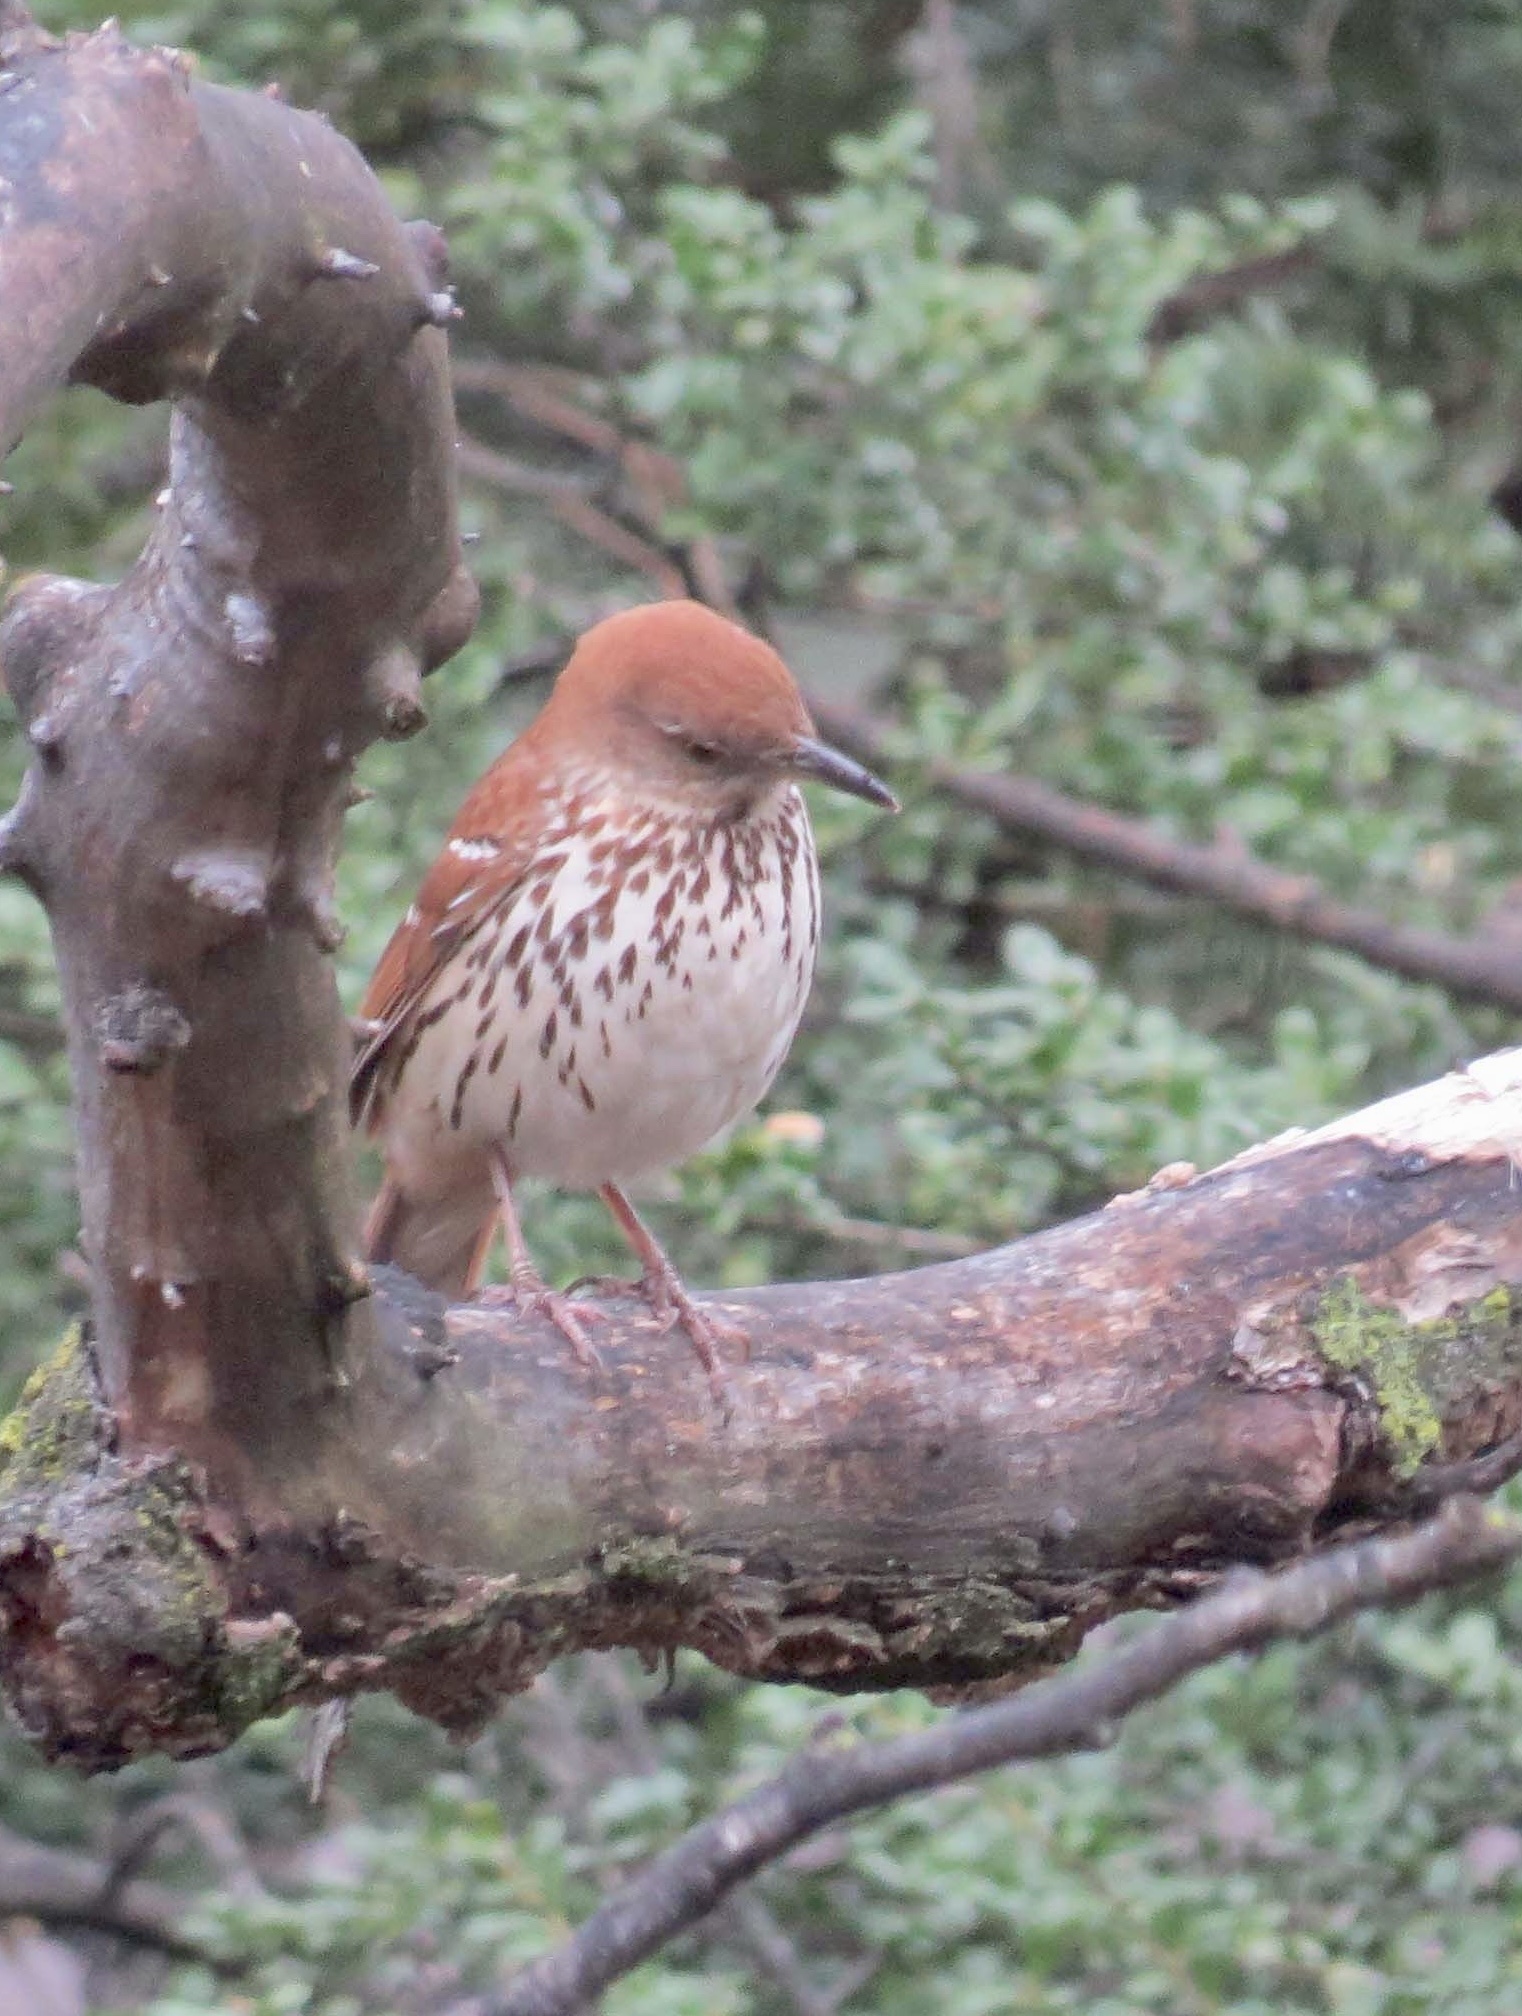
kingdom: Animalia
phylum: Chordata
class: Aves
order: Passeriformes
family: Mimidae
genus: Toxostoma
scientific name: Toxostoma rufum
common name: Brown thrasher
